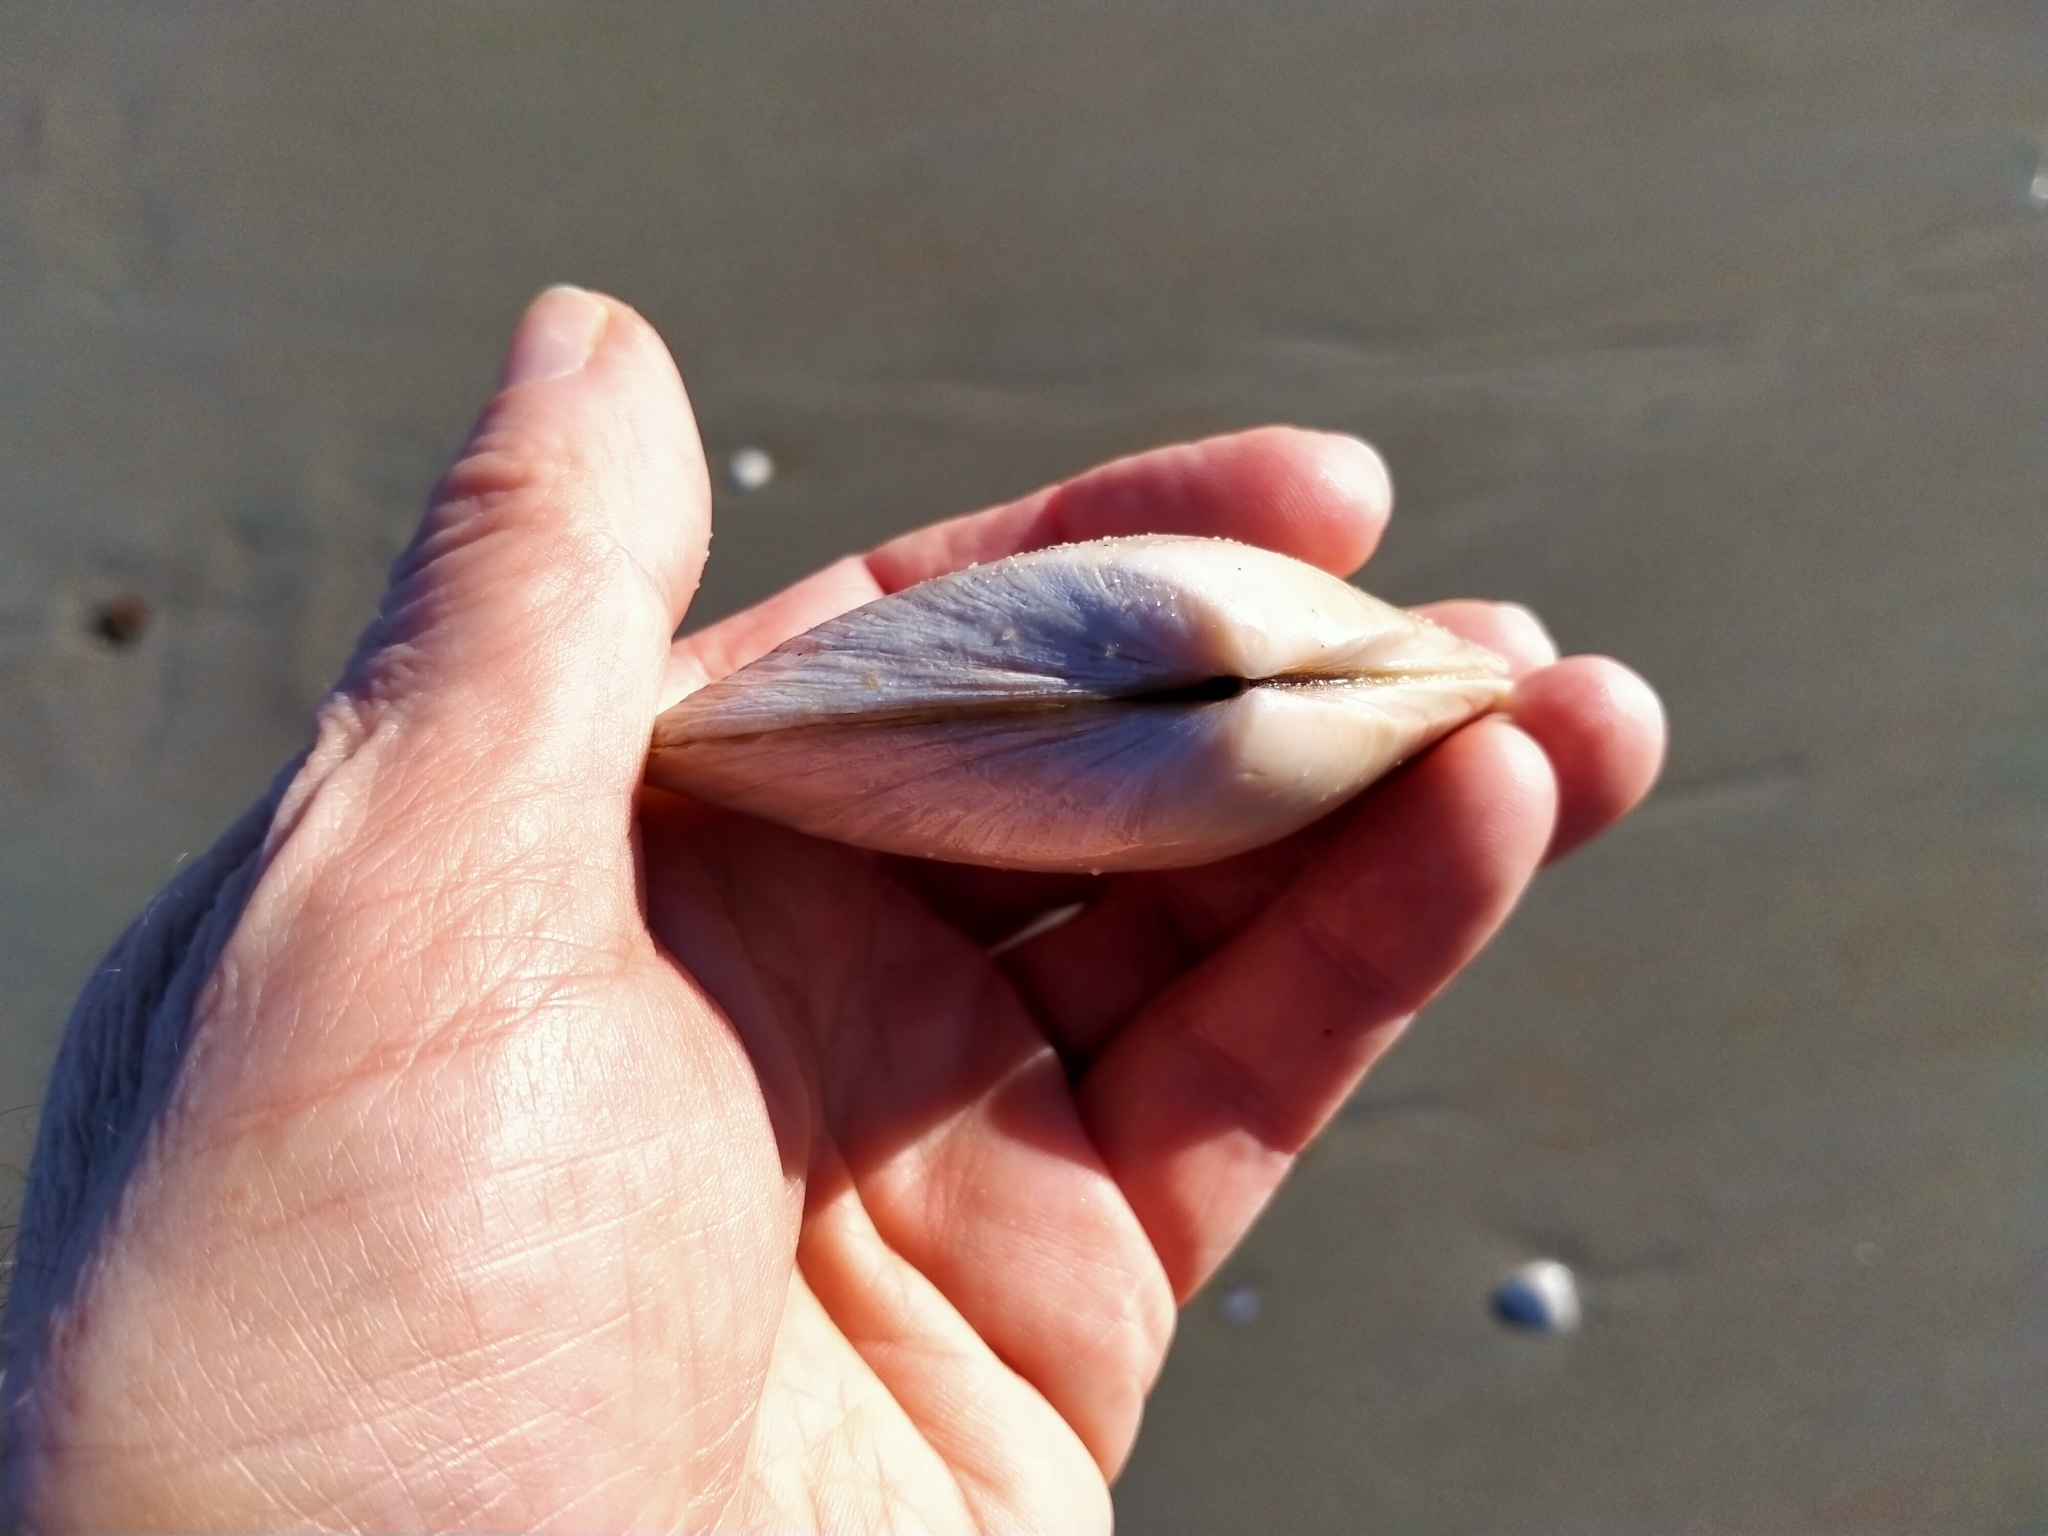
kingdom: Animalia
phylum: Mollusca
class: Bivalvia
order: Venerida
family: Mesodesmatidae
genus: Paphies
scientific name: Paphies donacina
